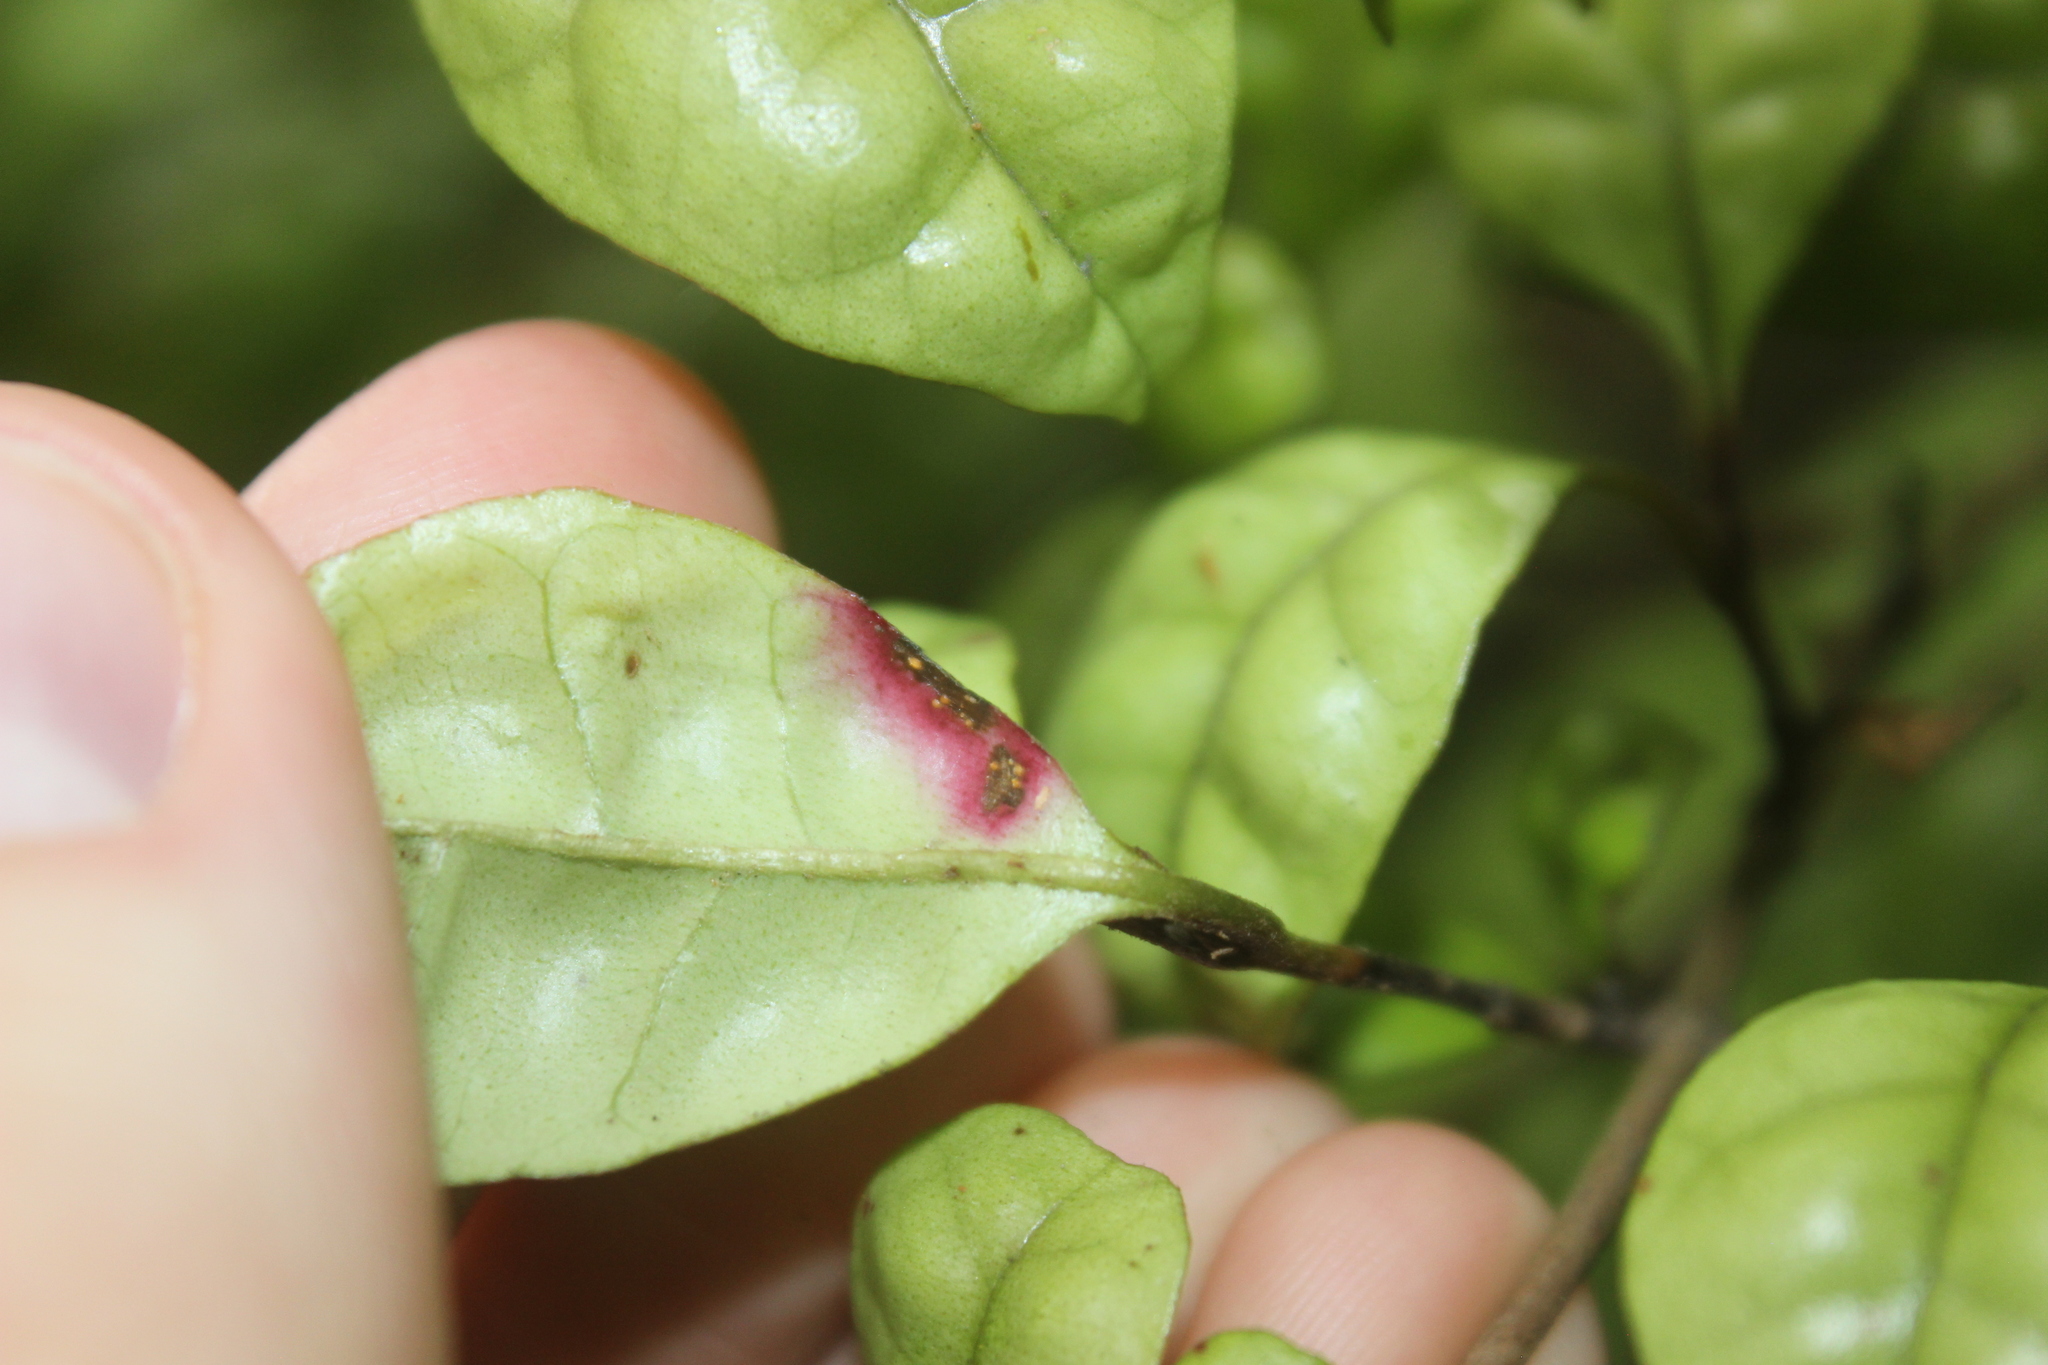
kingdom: Fungi
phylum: Basidiomycota
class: Pucciniomycetes
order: Pucciniales
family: Sphaerophragmiaceae
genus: Austropuccinia
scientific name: Austropuccinia psidii
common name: Myrtle rust
